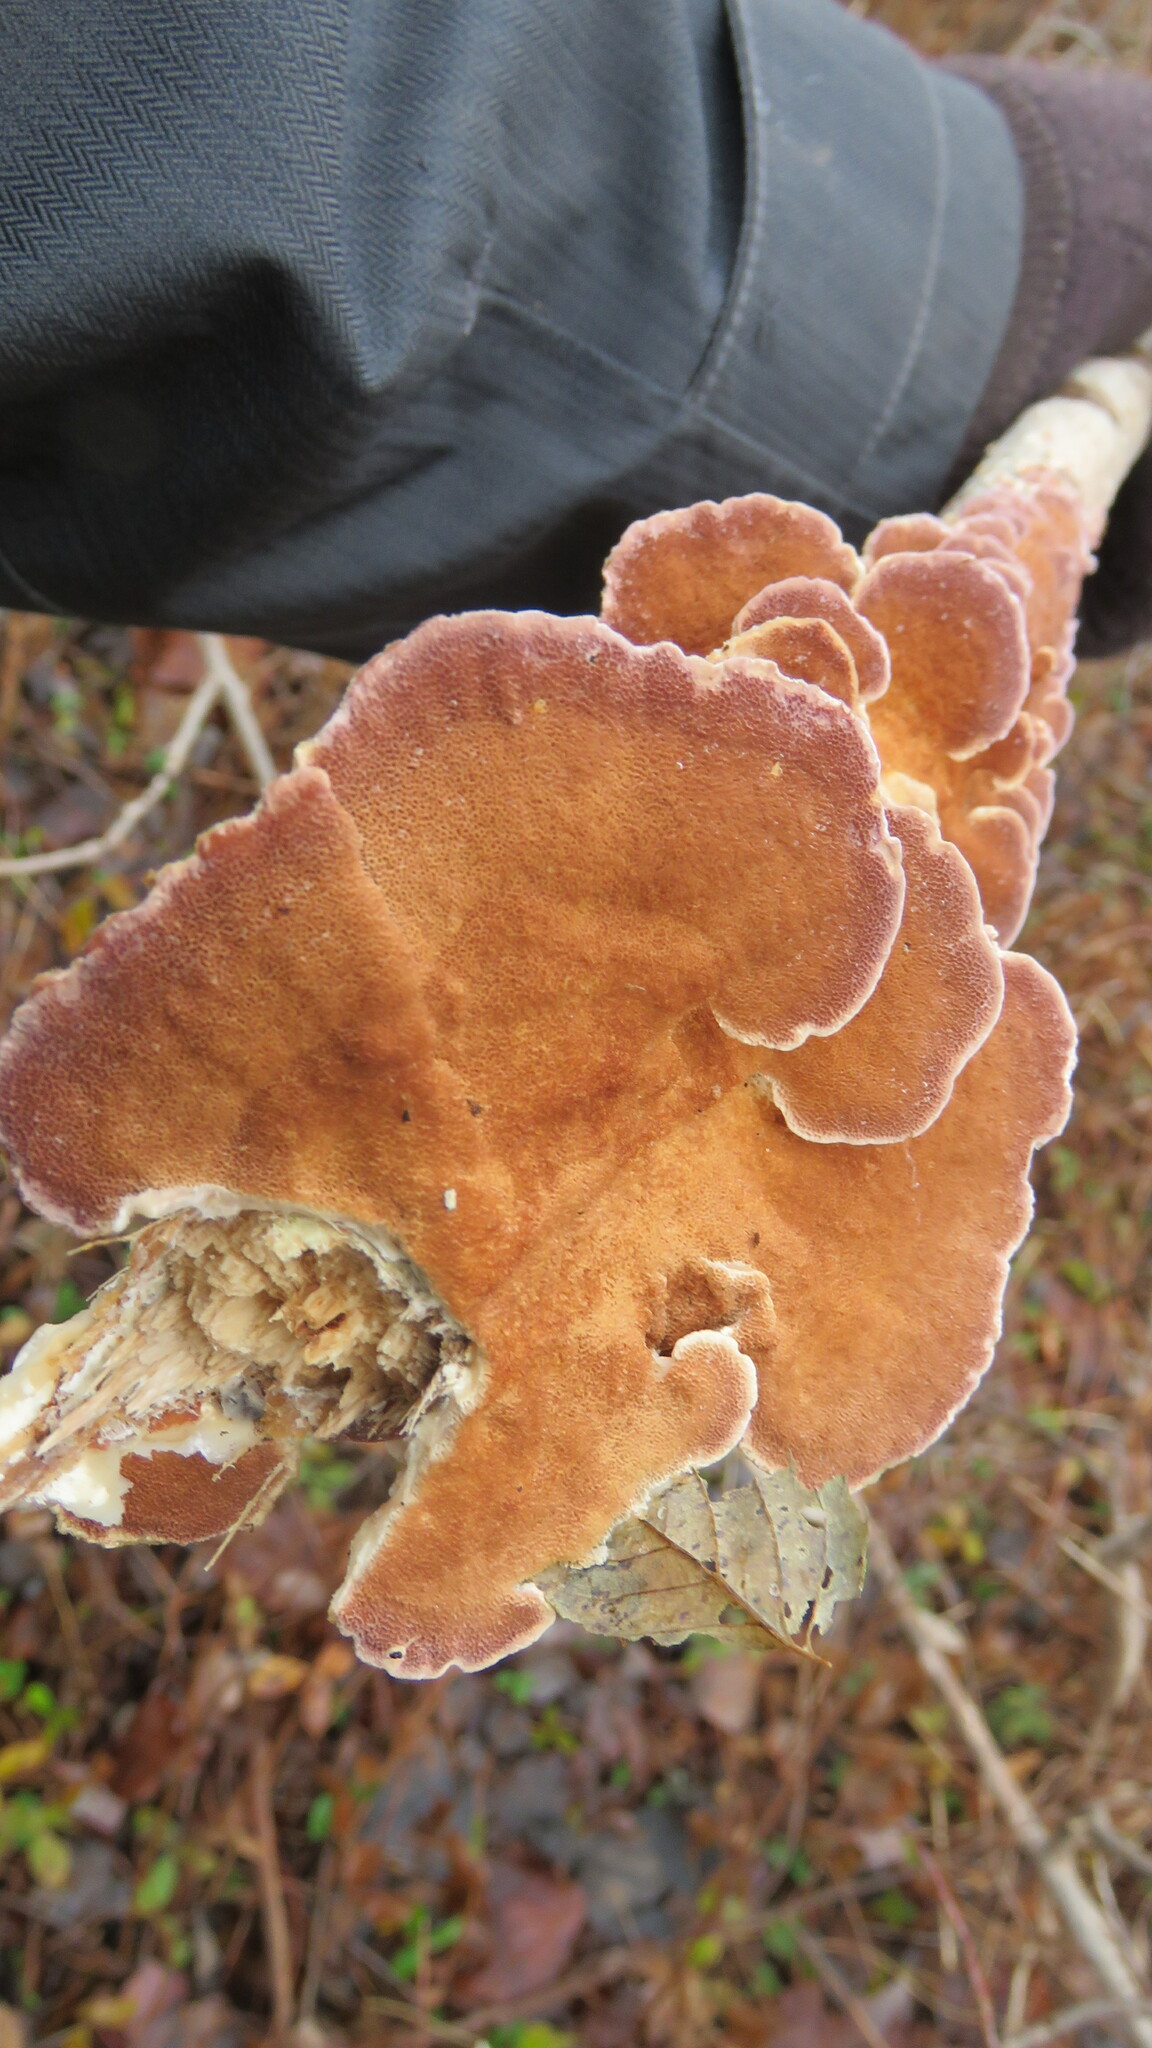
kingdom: Fungi
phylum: Basidiomycota
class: Agaricomycetes
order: Hymenochaetales
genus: Trichaptum
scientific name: Trichaptum abietinum
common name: Purplepore bracket
